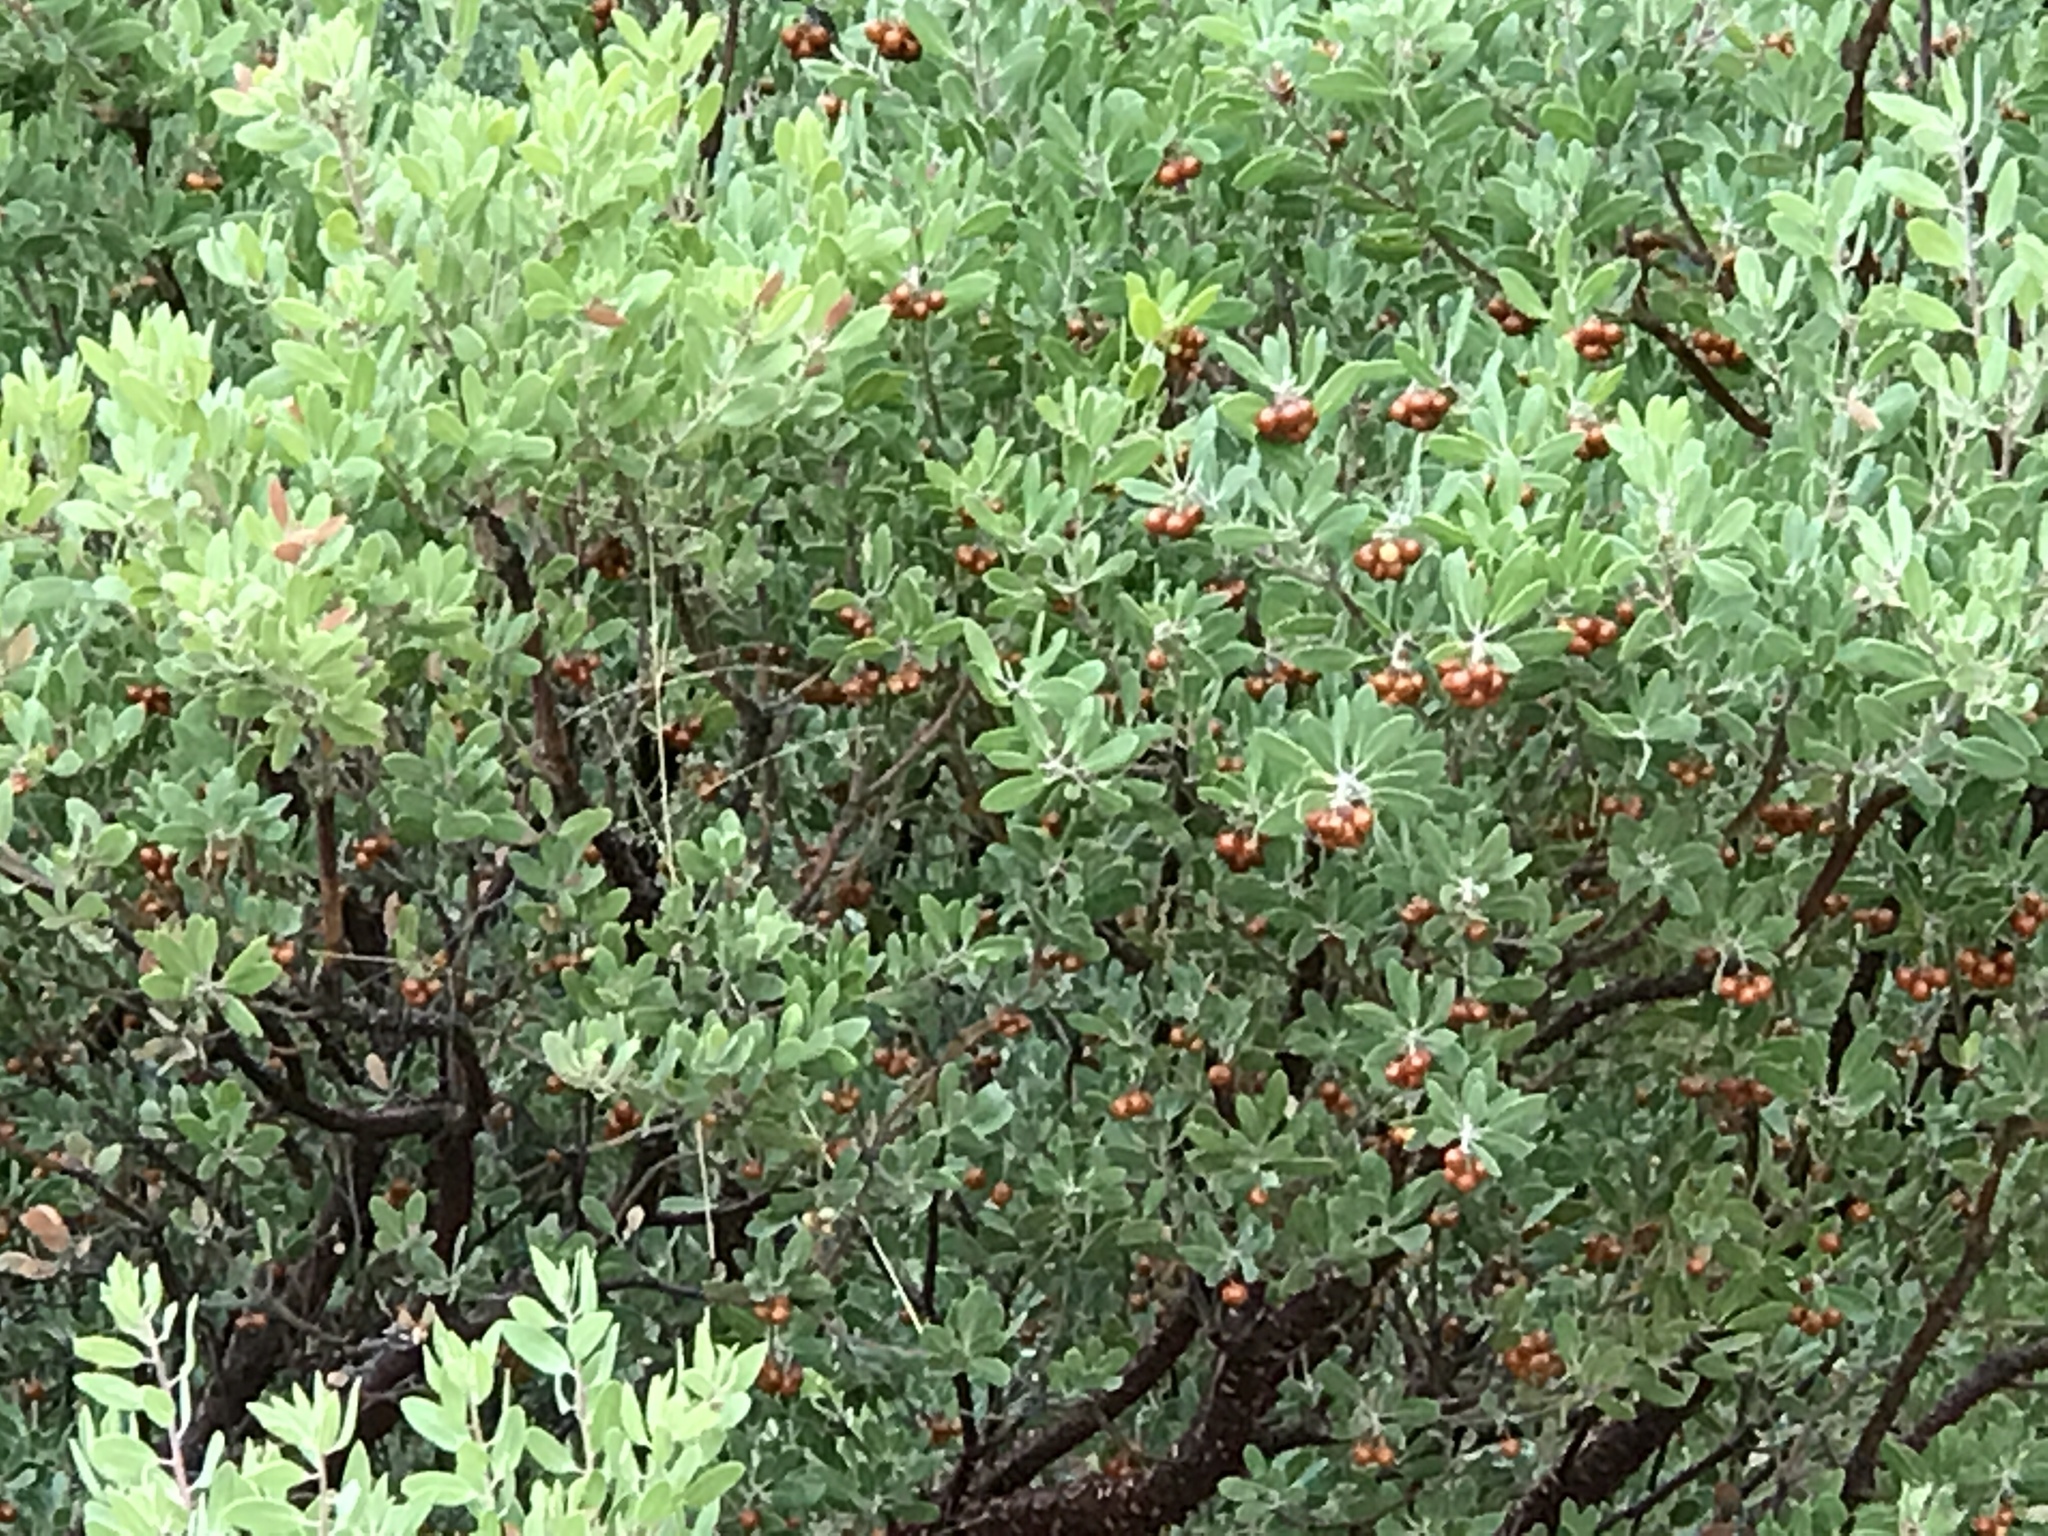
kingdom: Plantae
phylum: Tracheophyta
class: Magnoliopsida
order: Ericales
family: Ericaceae
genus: Arctostaphylos
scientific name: Arctostaphylos pungens
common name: Mexican manzanita
